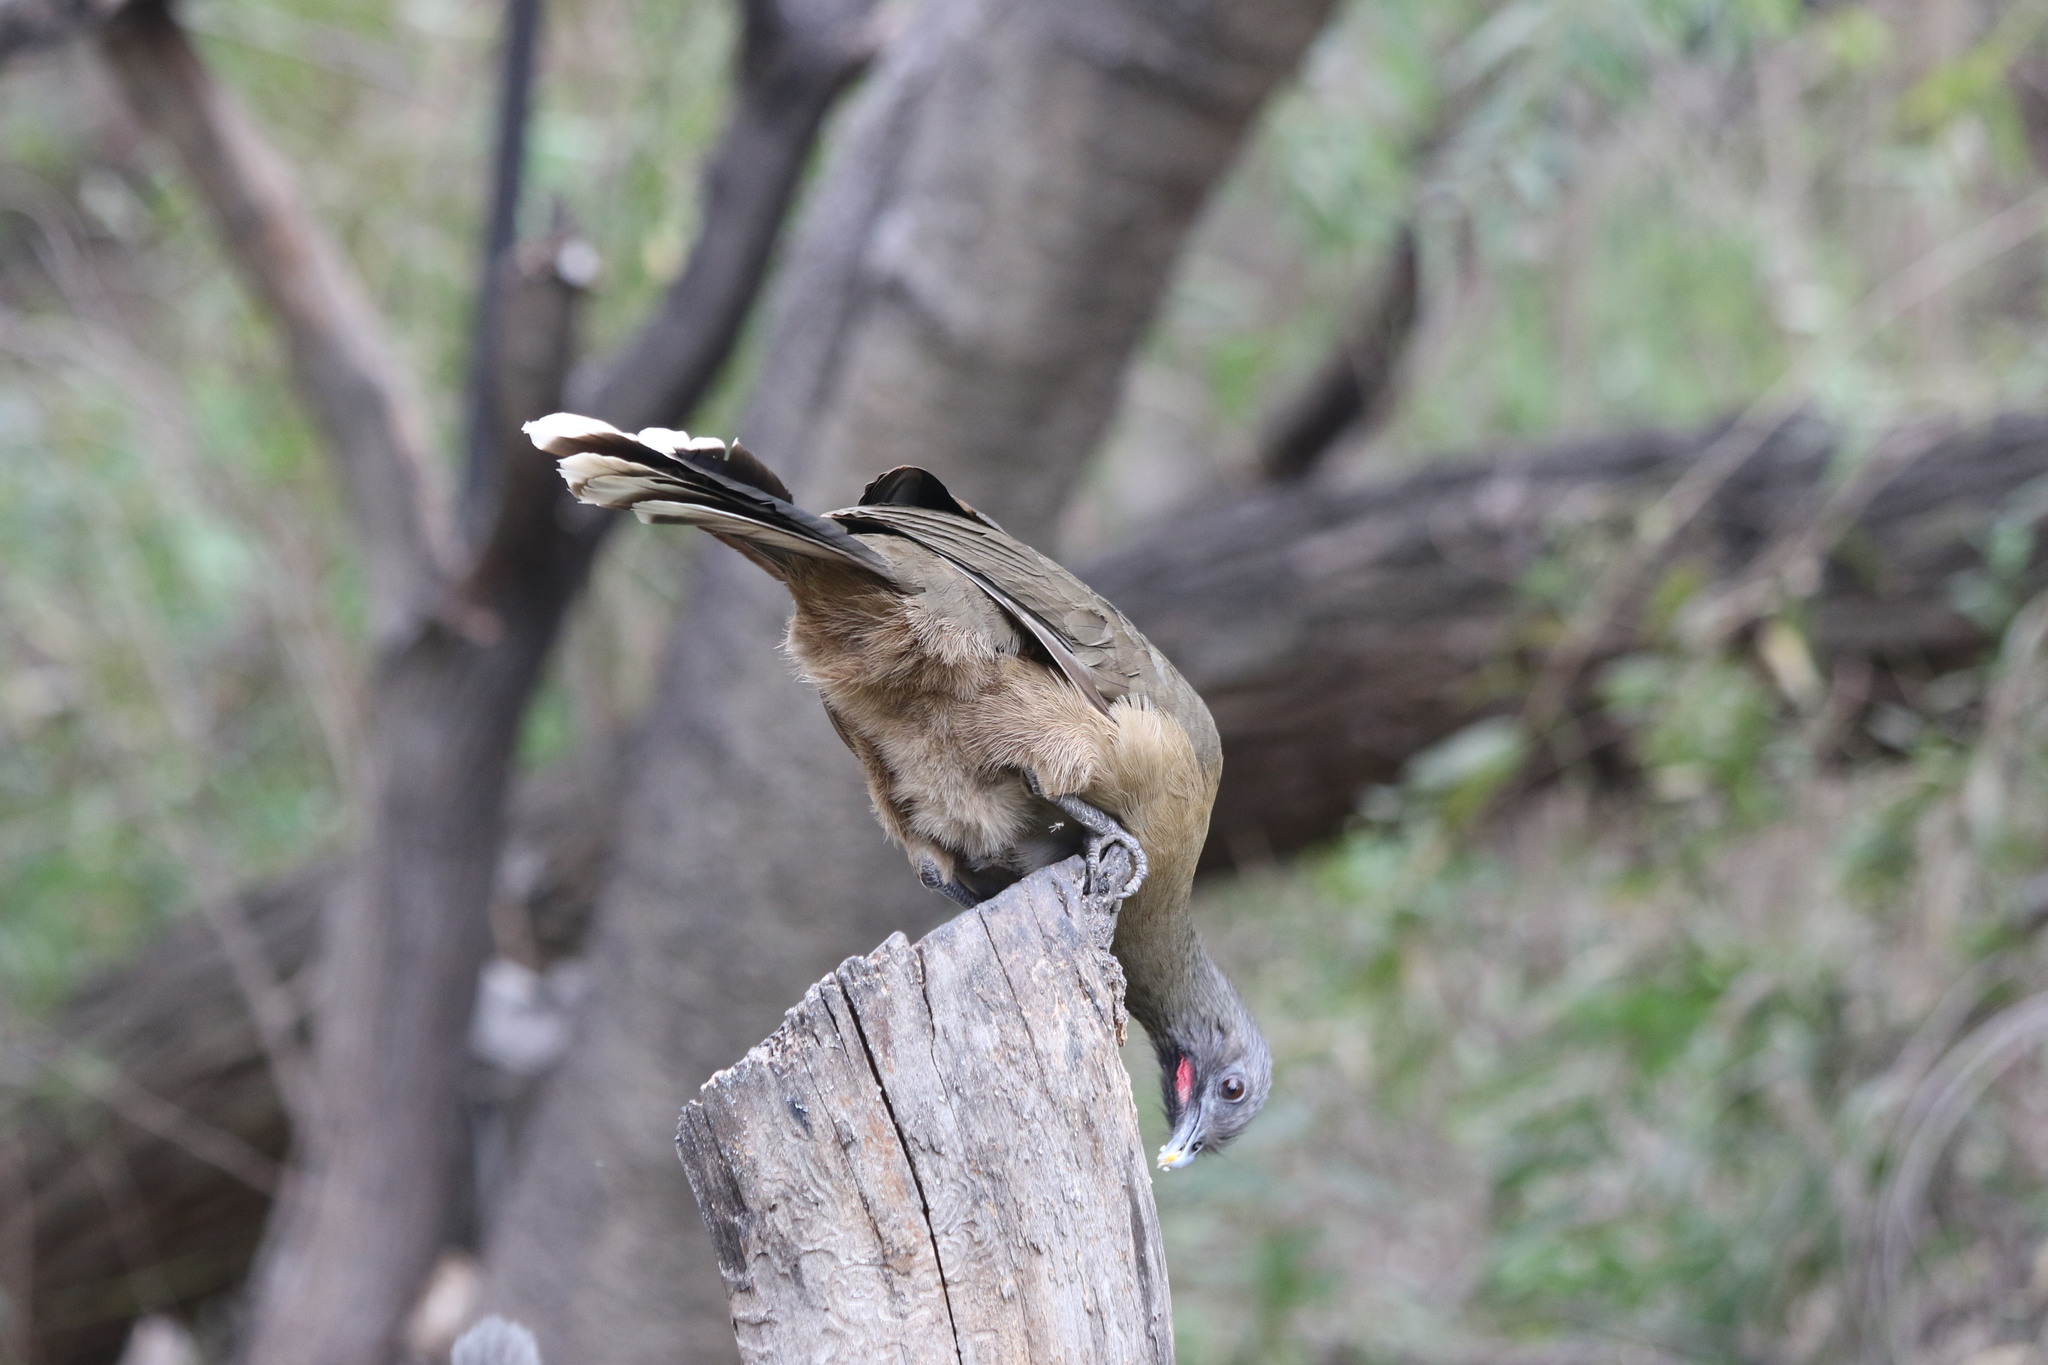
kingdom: Animalia
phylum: Chordata
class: Aves
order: Galliformes
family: Cracidae
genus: Ortalis
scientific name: Ortalis vetula
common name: Plain chachalaca
